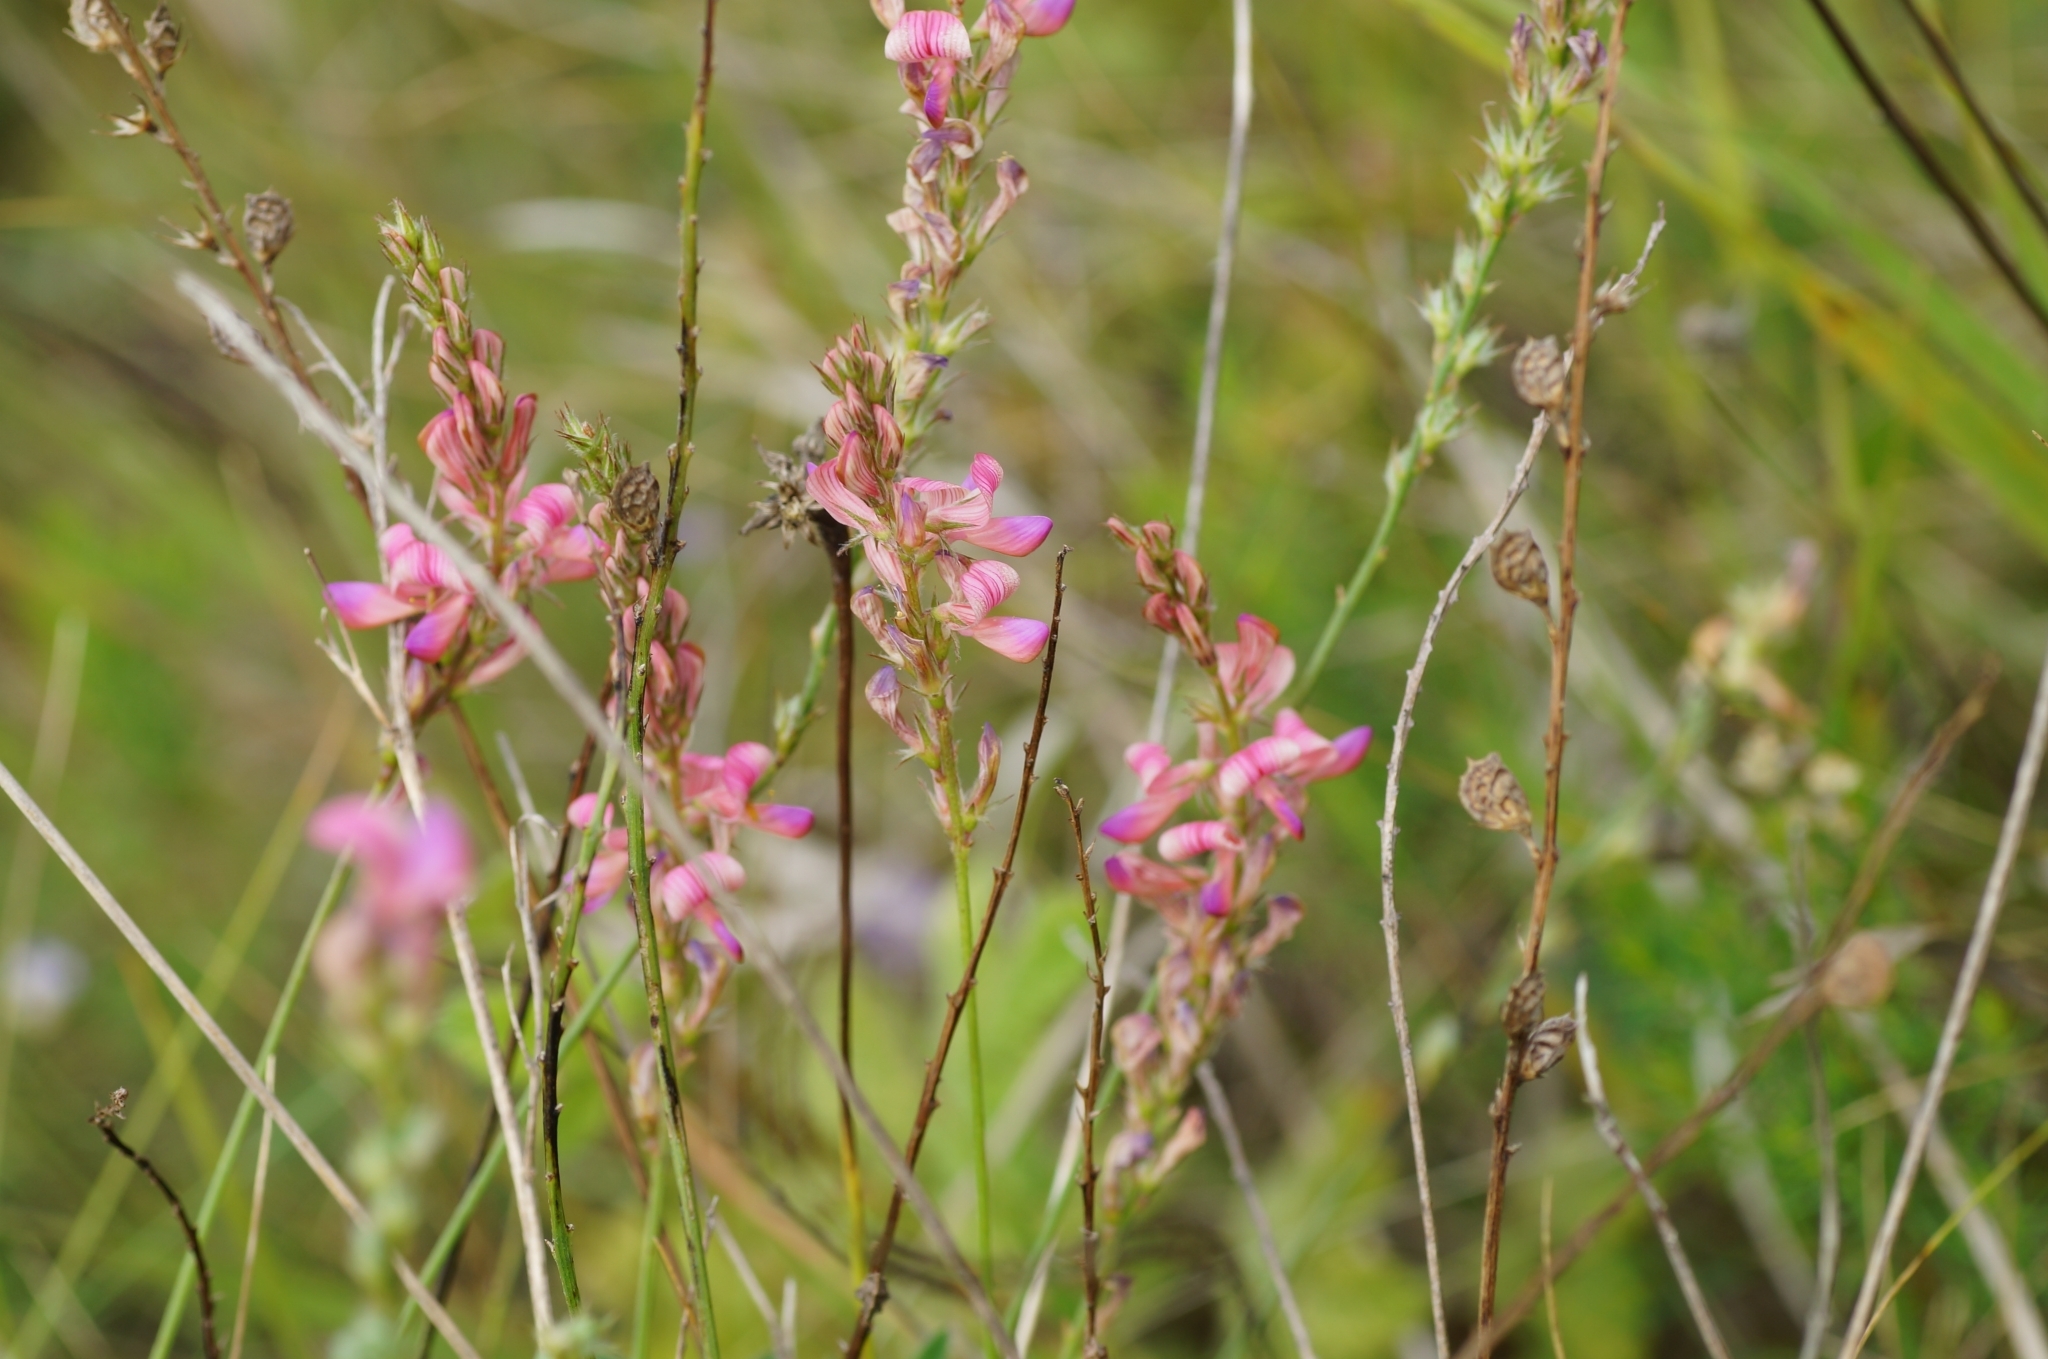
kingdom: Plantae
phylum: Tracheophyta
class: Magnoliopsida
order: Fabales
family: Fabaceae
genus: Onobrychis
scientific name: Onobrychis arenaria
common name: Sand esparcet
